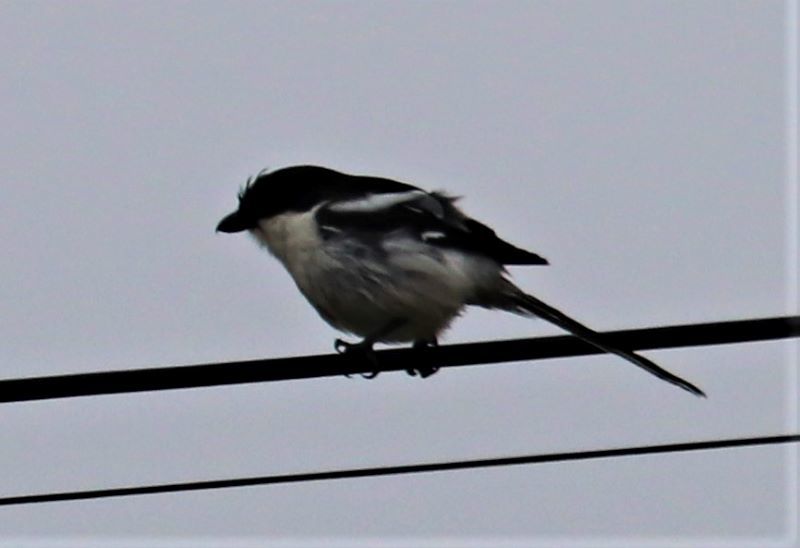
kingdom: Animalia
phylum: Chordata
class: Aves
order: Passeriformes
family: Laniidae
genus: Lanius
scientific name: Lanius collaris
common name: Southern fiscal
